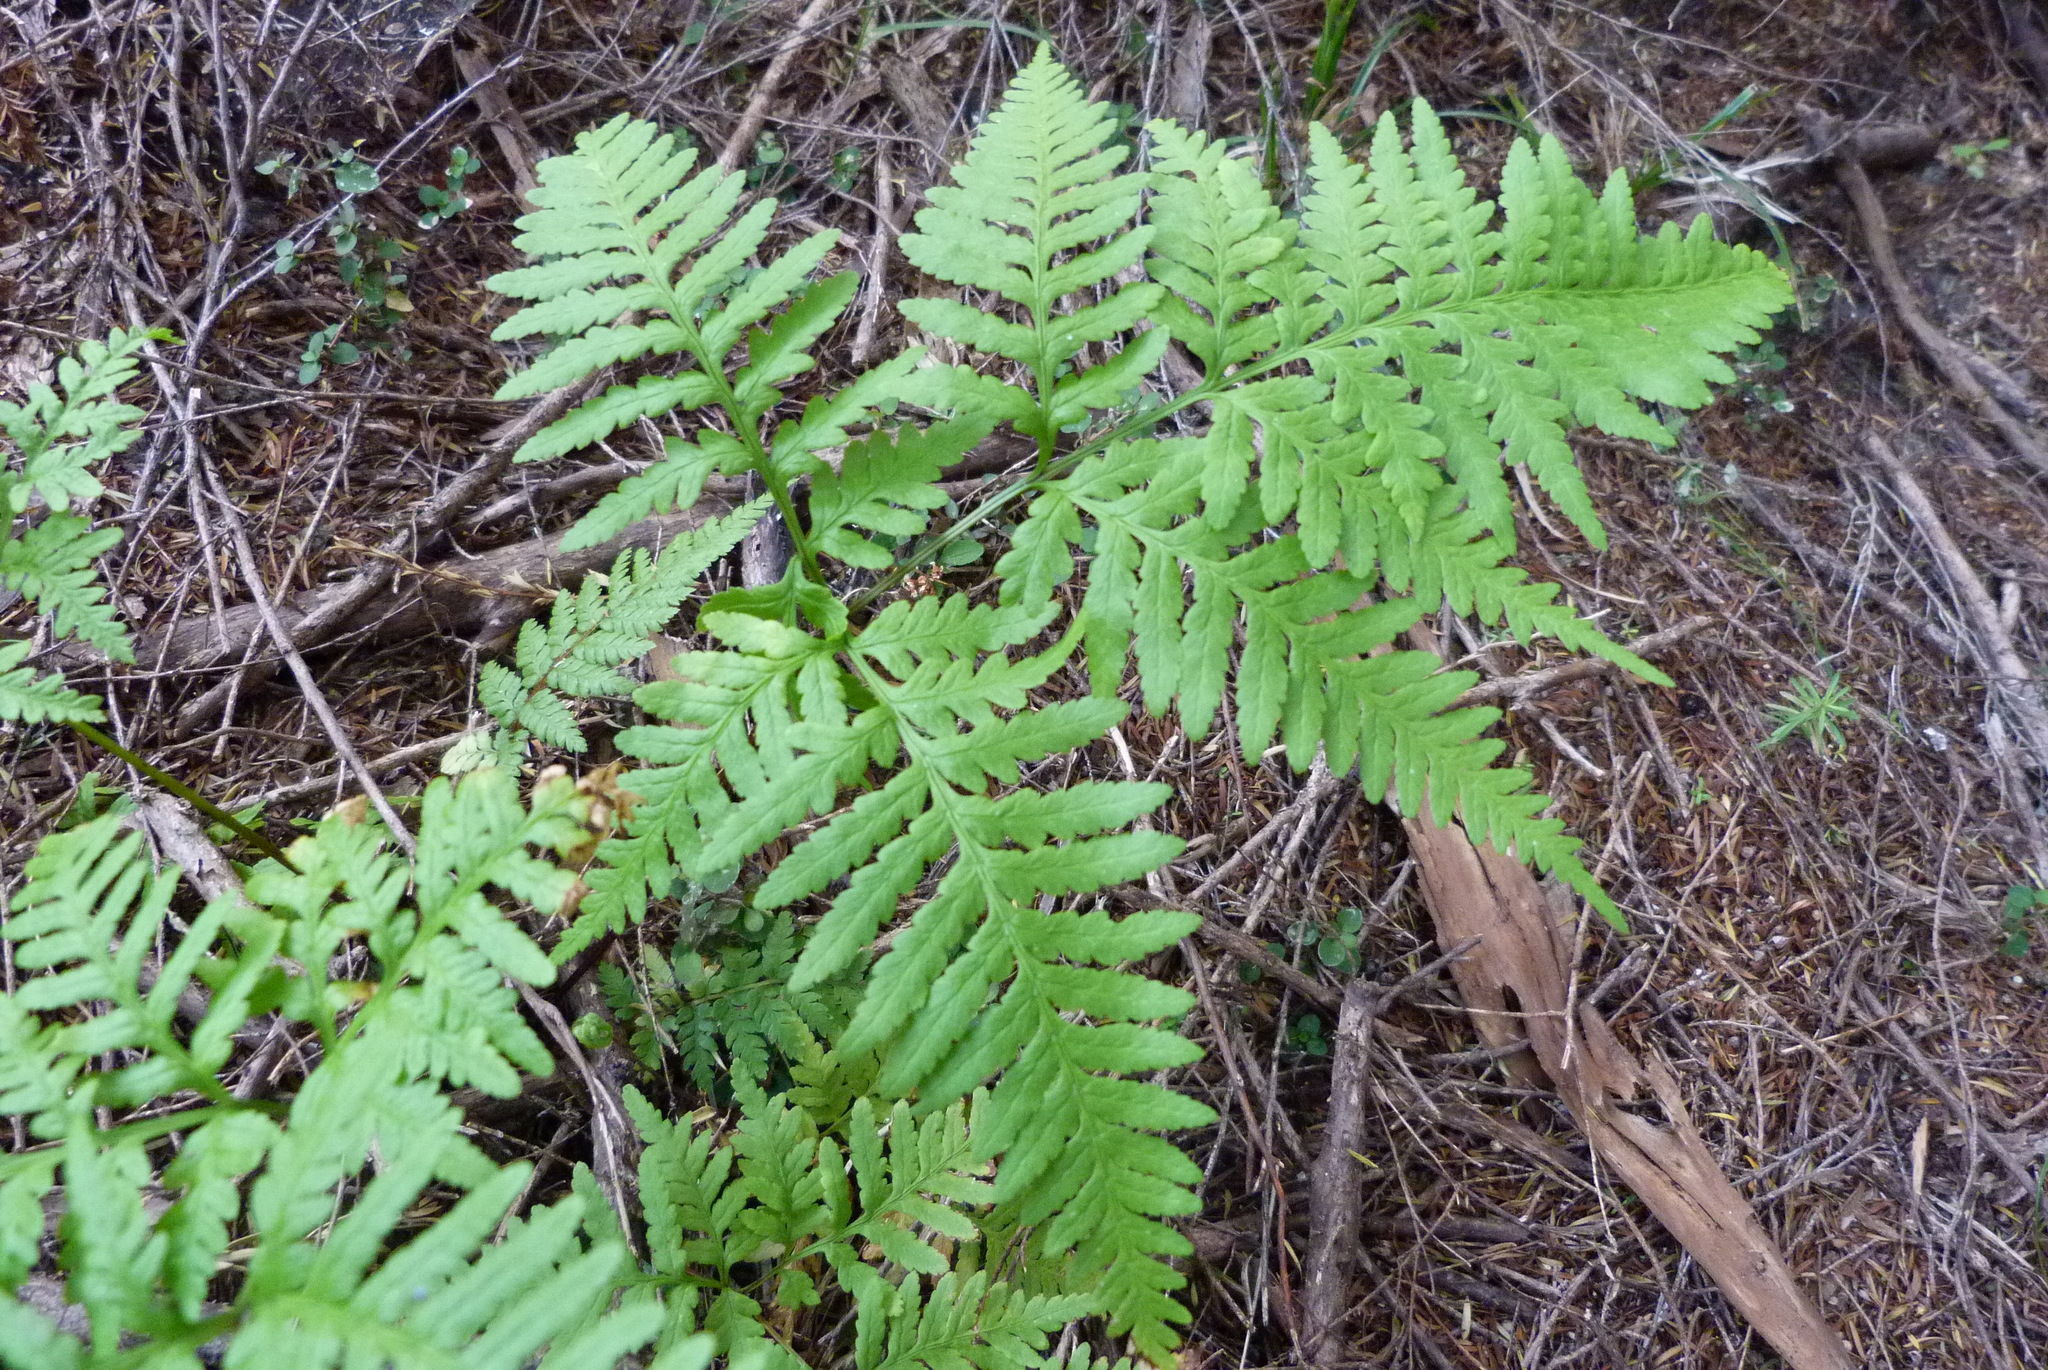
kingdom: Plantae
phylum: Tracheophyta
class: Polypodiopsida
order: Polypodiales
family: Pteridaceae
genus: Pteris
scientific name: Pteris tremula
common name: Australian brake
